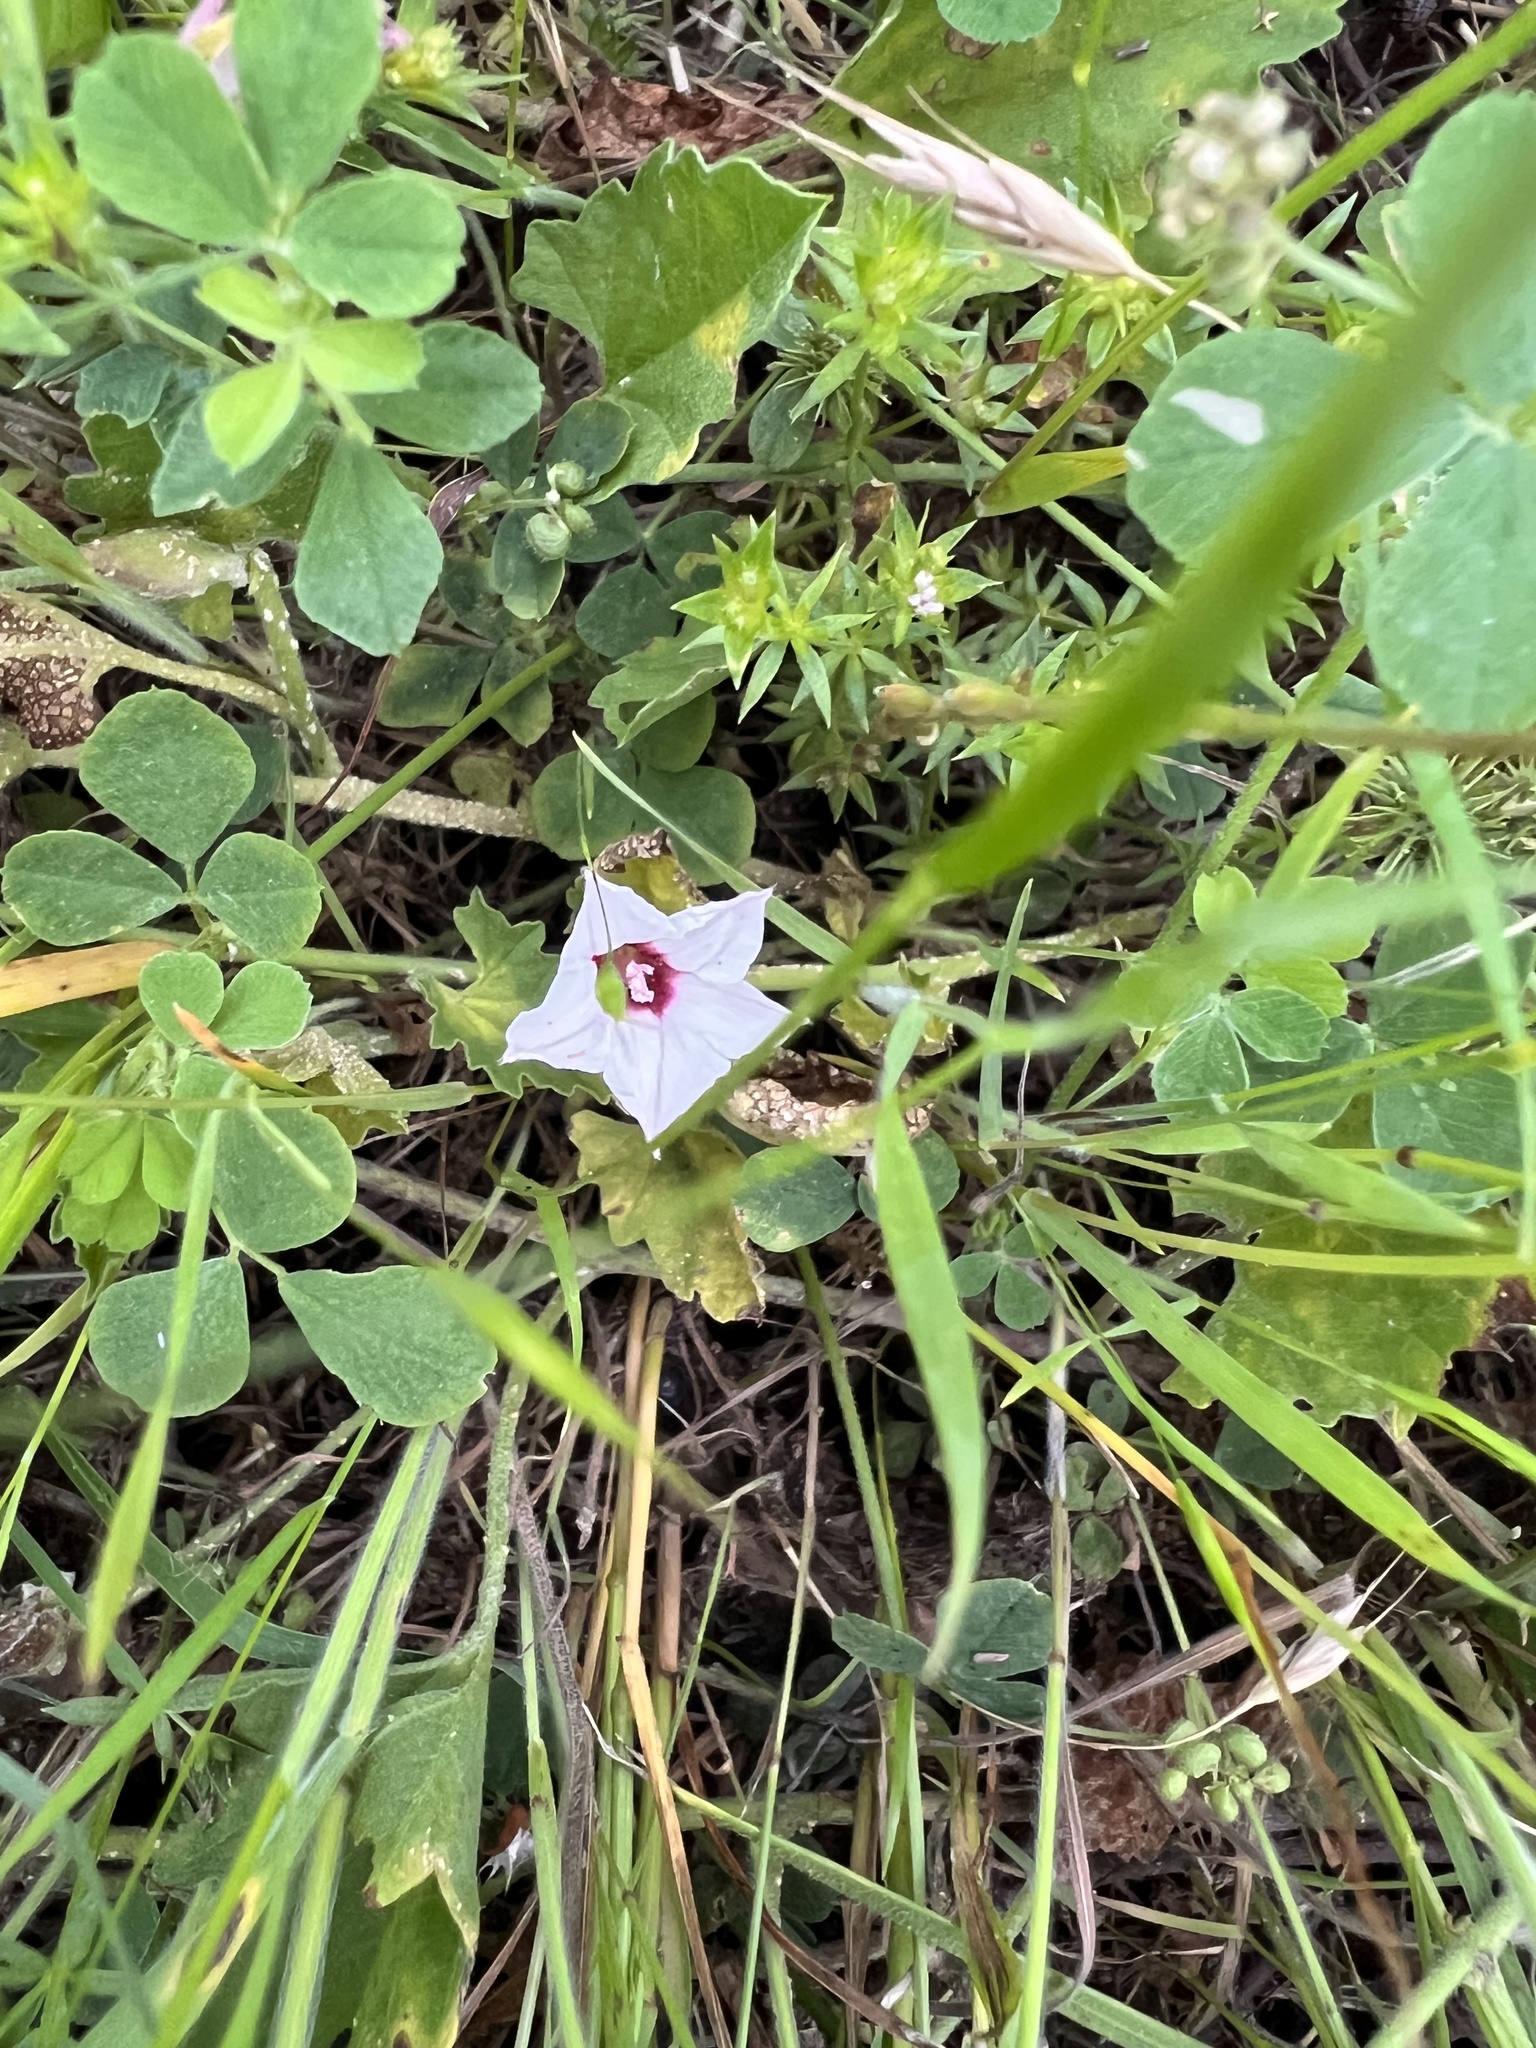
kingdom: Plantae
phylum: Tracheophyta
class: Magnoliopsida
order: Solanales
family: Convolvulaceae
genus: Convolvulus
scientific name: Convolvulus equitans
